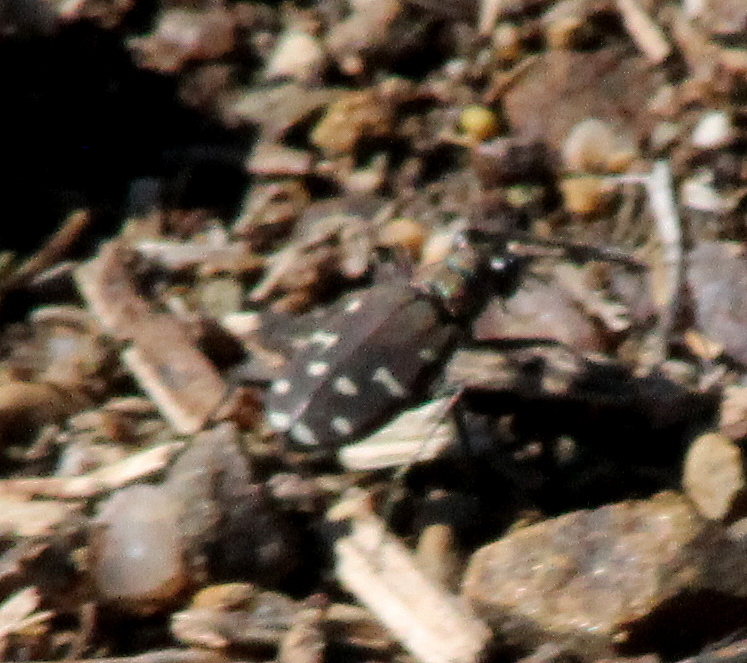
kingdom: Animalia
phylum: Arthropoda
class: Insecta
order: Coleoptera
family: Carabidae
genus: Cicindela
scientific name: Cicindela oregona
